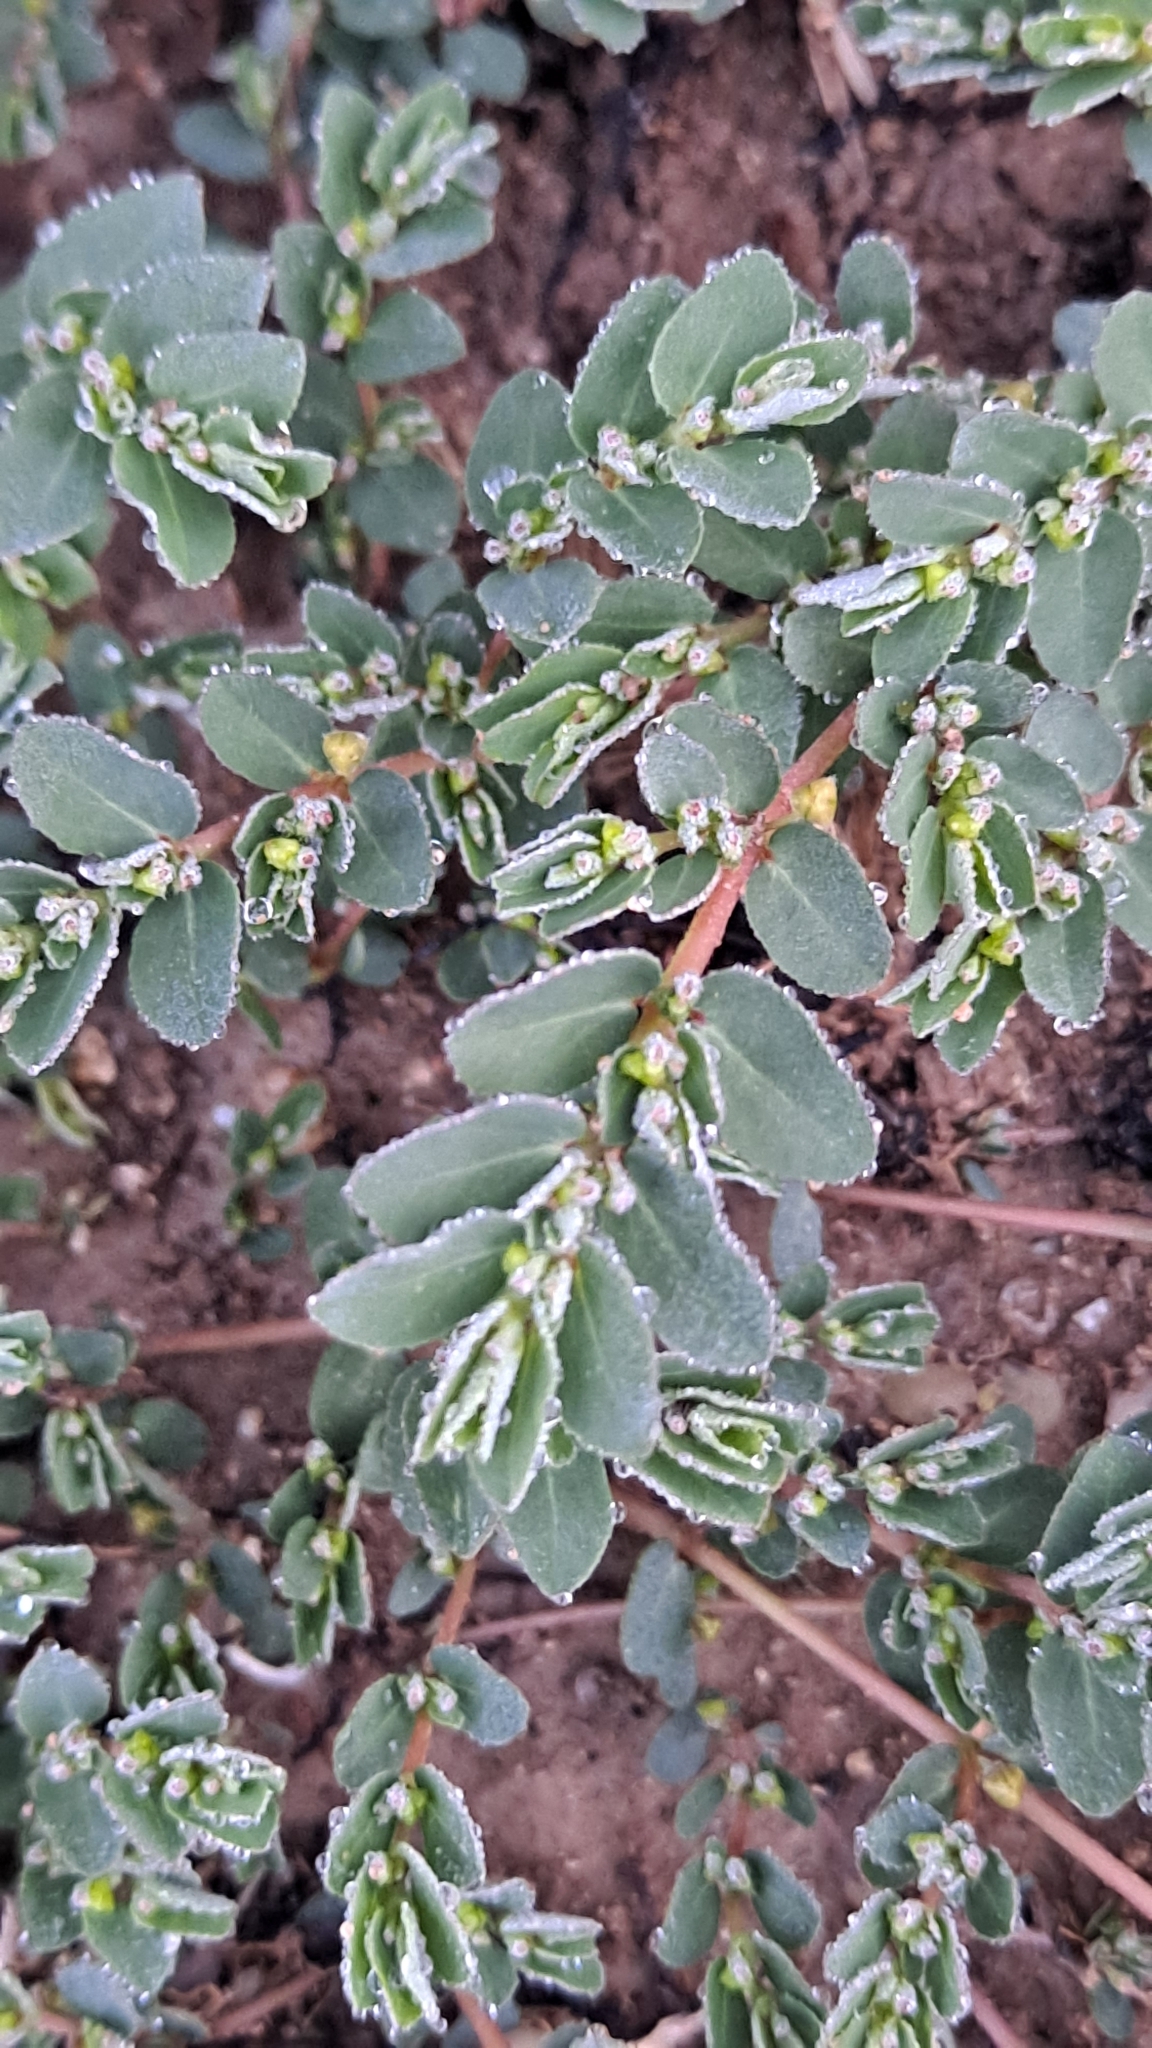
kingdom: Plantae
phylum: Tracheophyta
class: Magnoliopsida
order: Malpighiales
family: Euphorbiaceae
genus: Euphorbia
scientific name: Euphorbia prostrata
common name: Prostrate sandmat
